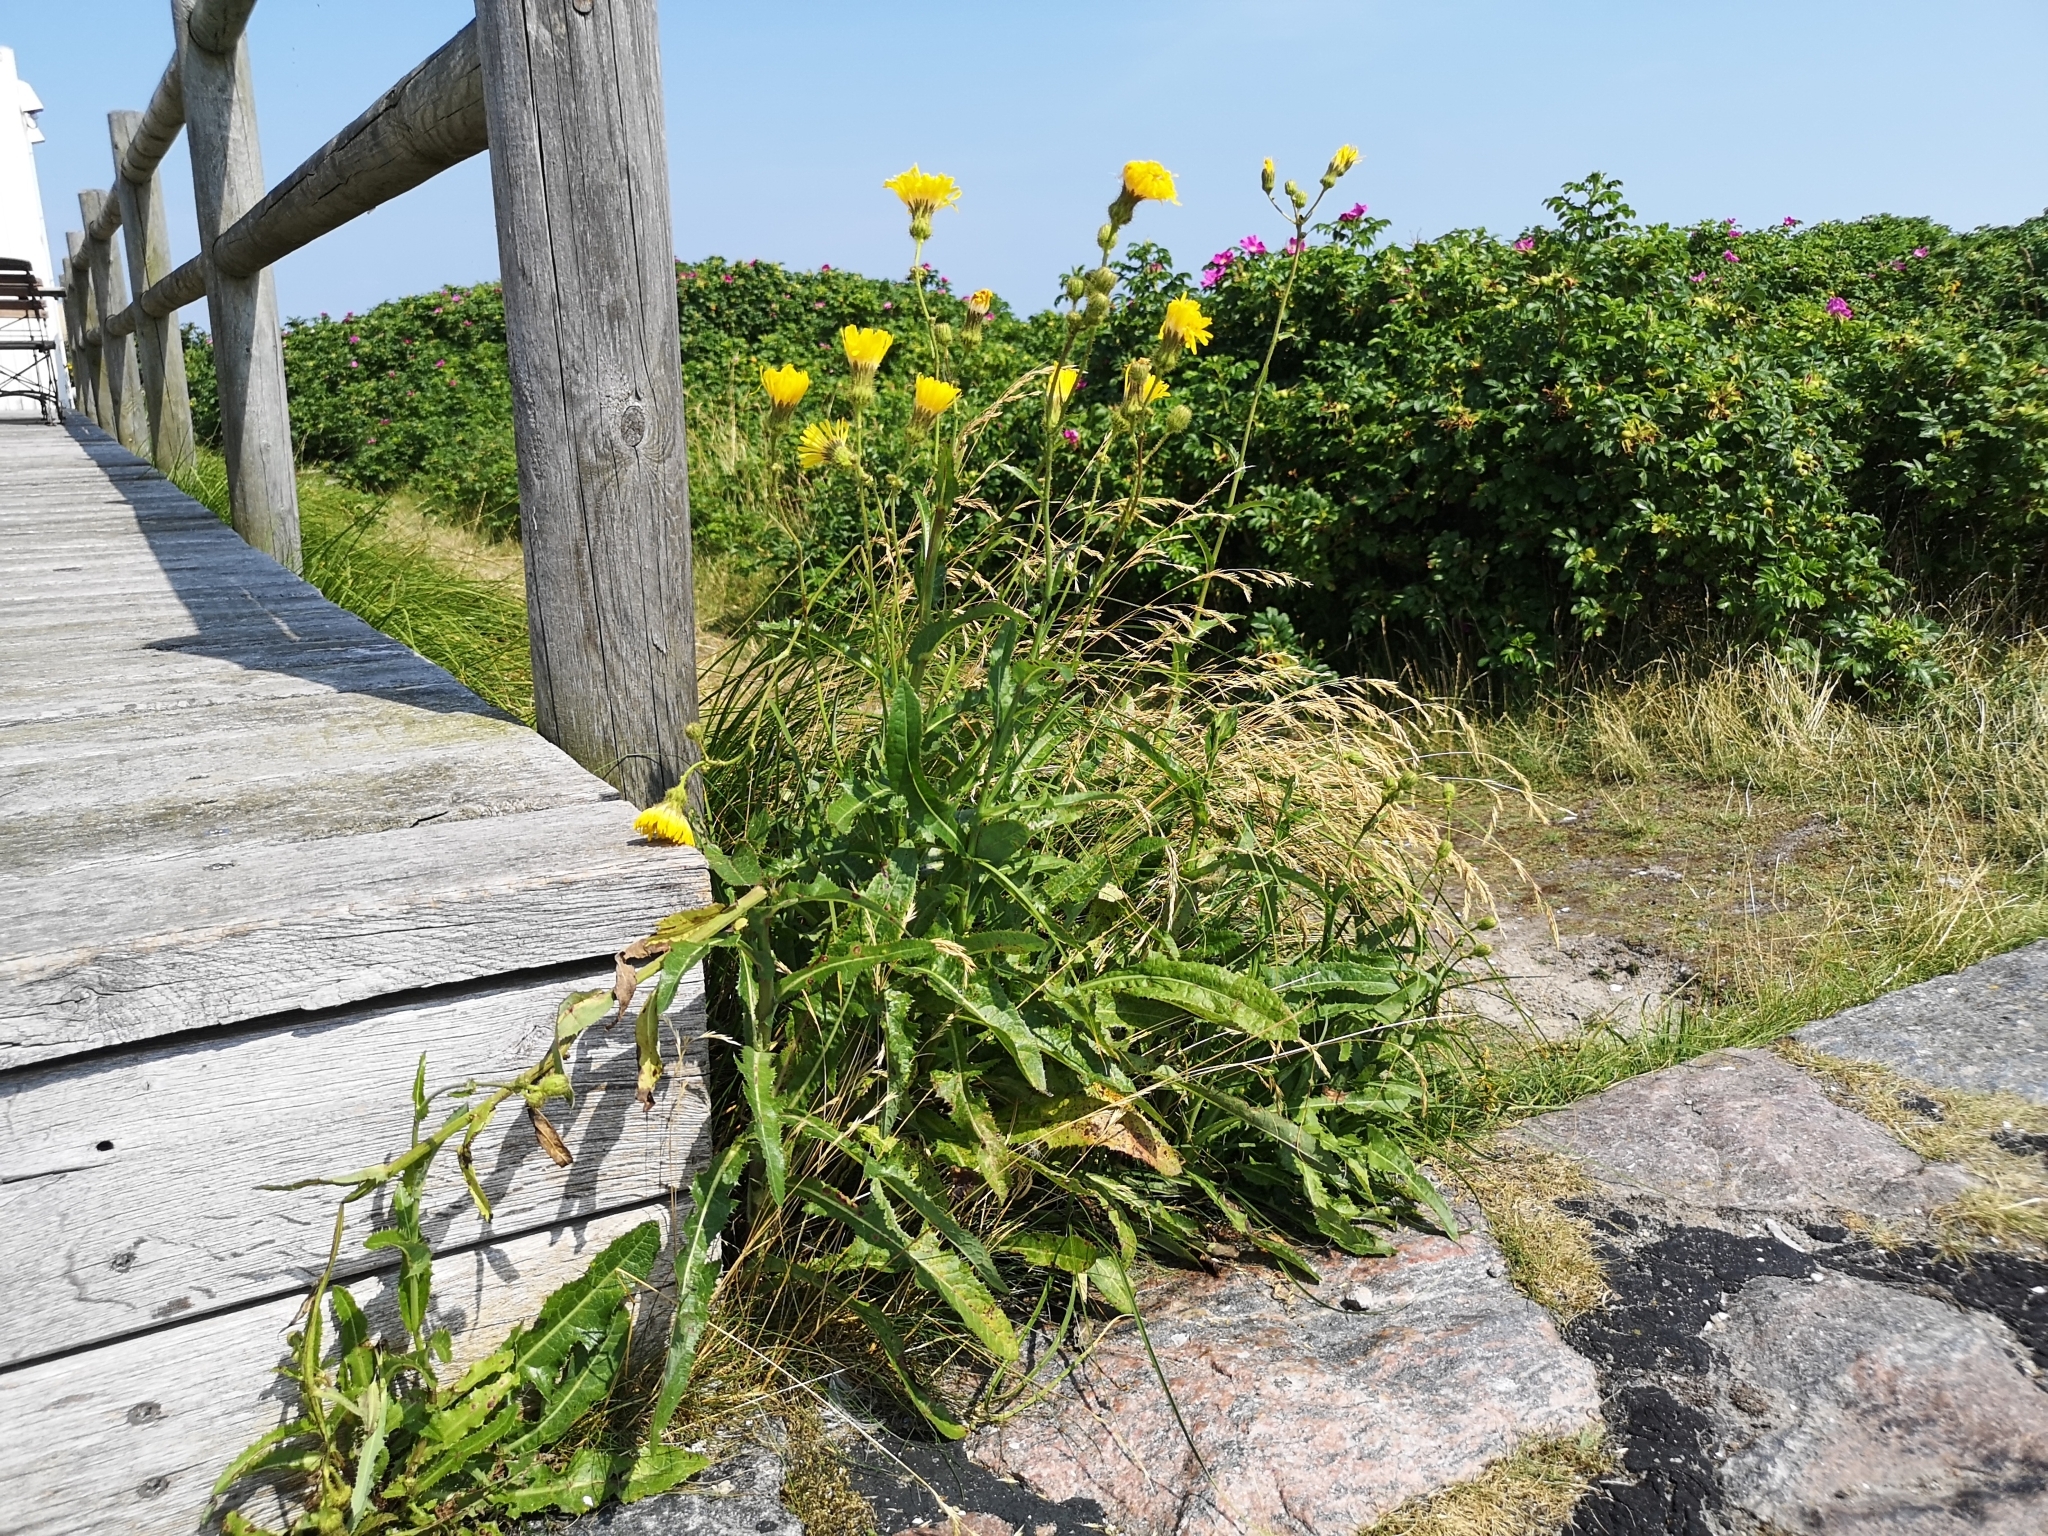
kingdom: Plantae
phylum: Tracheophyta
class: Magnoliopsida
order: Asterales
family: Asteraceae
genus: Sonchus
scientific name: Sonchus arvensis
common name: Perennial sow-thistle
